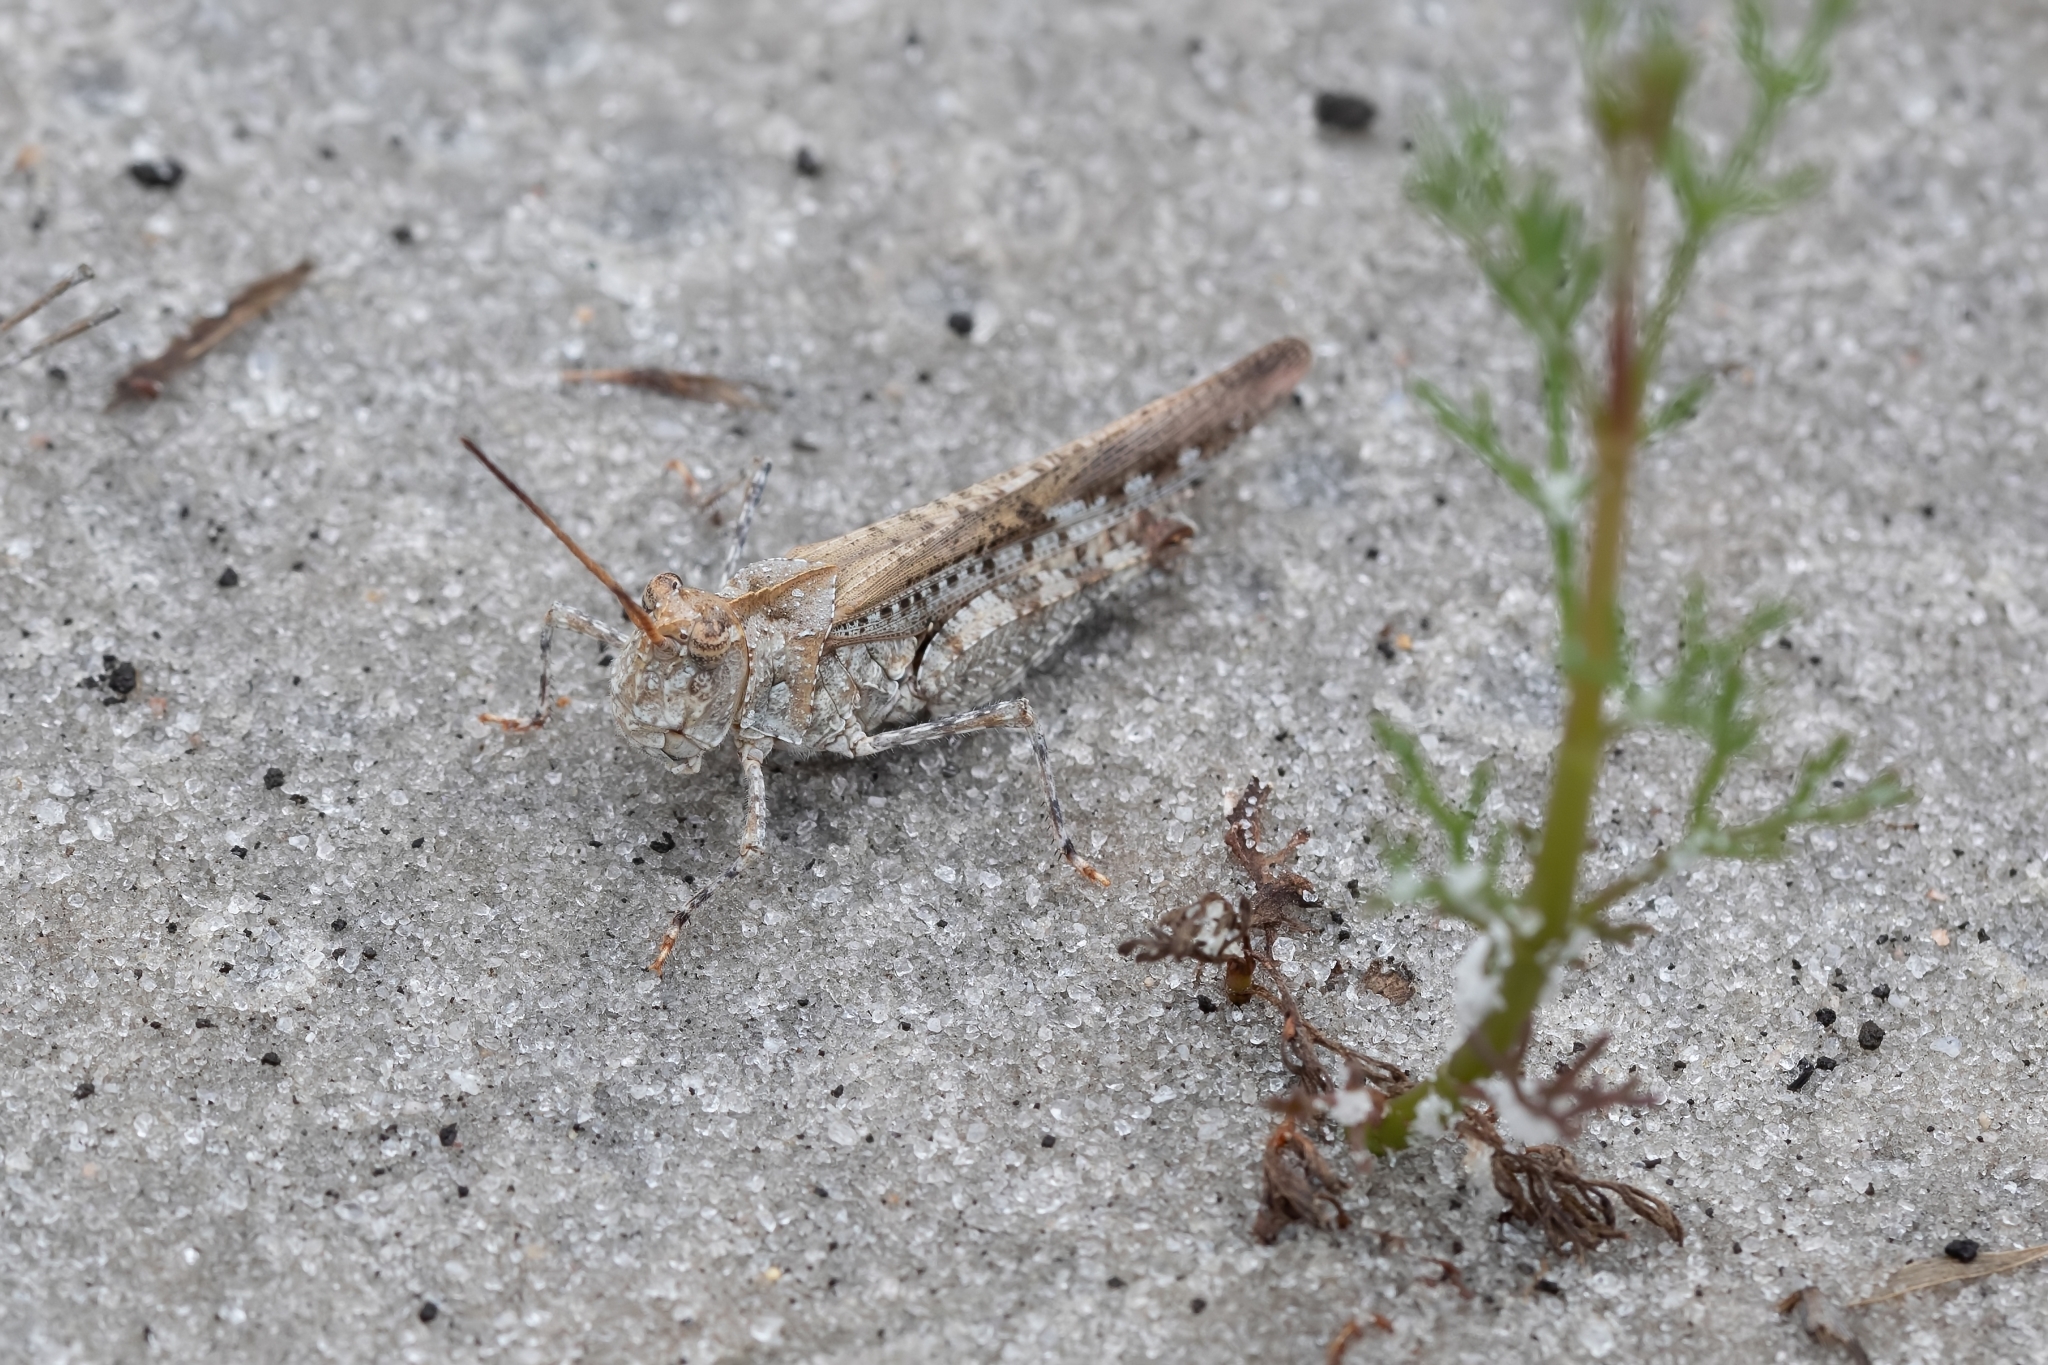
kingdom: Animalia
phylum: Arthropoda
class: Insecta
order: Orthoptera
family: Acrididae
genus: Psinidia
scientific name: Psinidia fenestralis
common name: Long-horned locust
